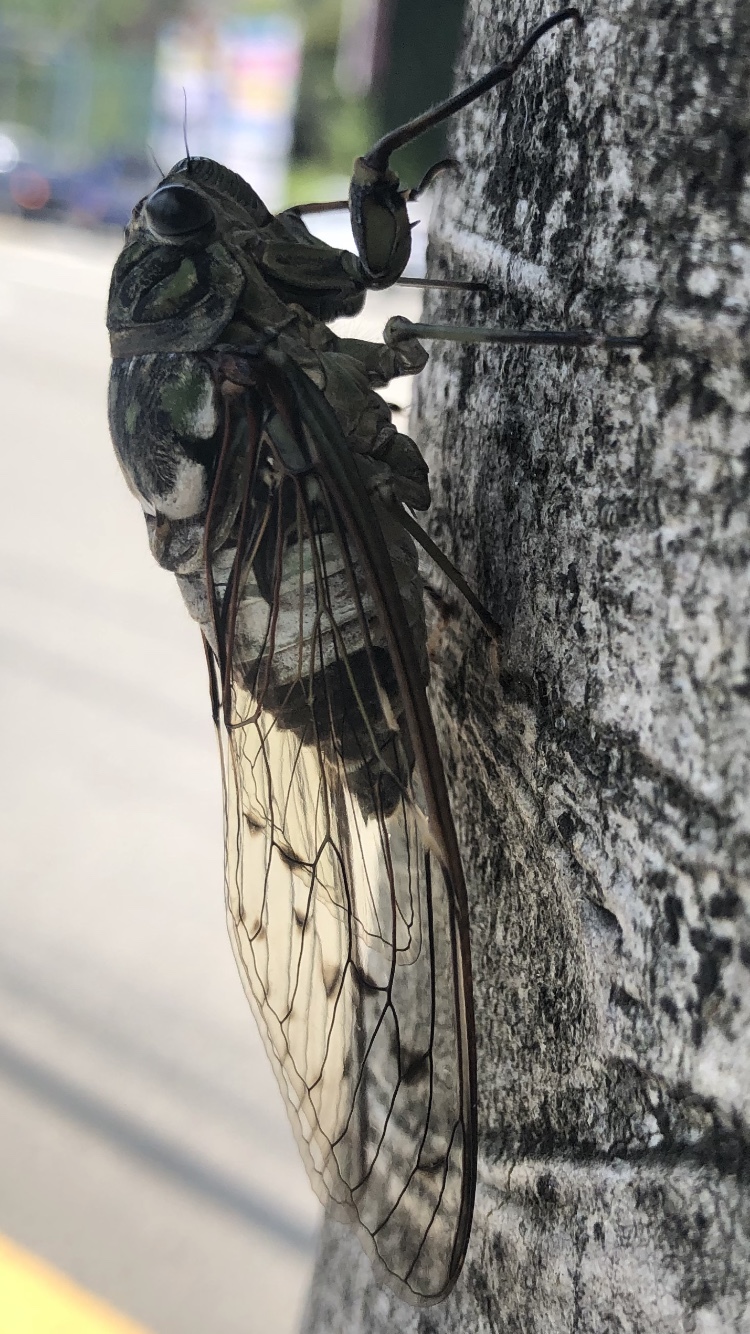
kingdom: Animalia
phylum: Arthropoda
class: Insecta
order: Hemiptera
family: Cicadidae
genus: Hyalessa
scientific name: Hyalessa maculaticollis
